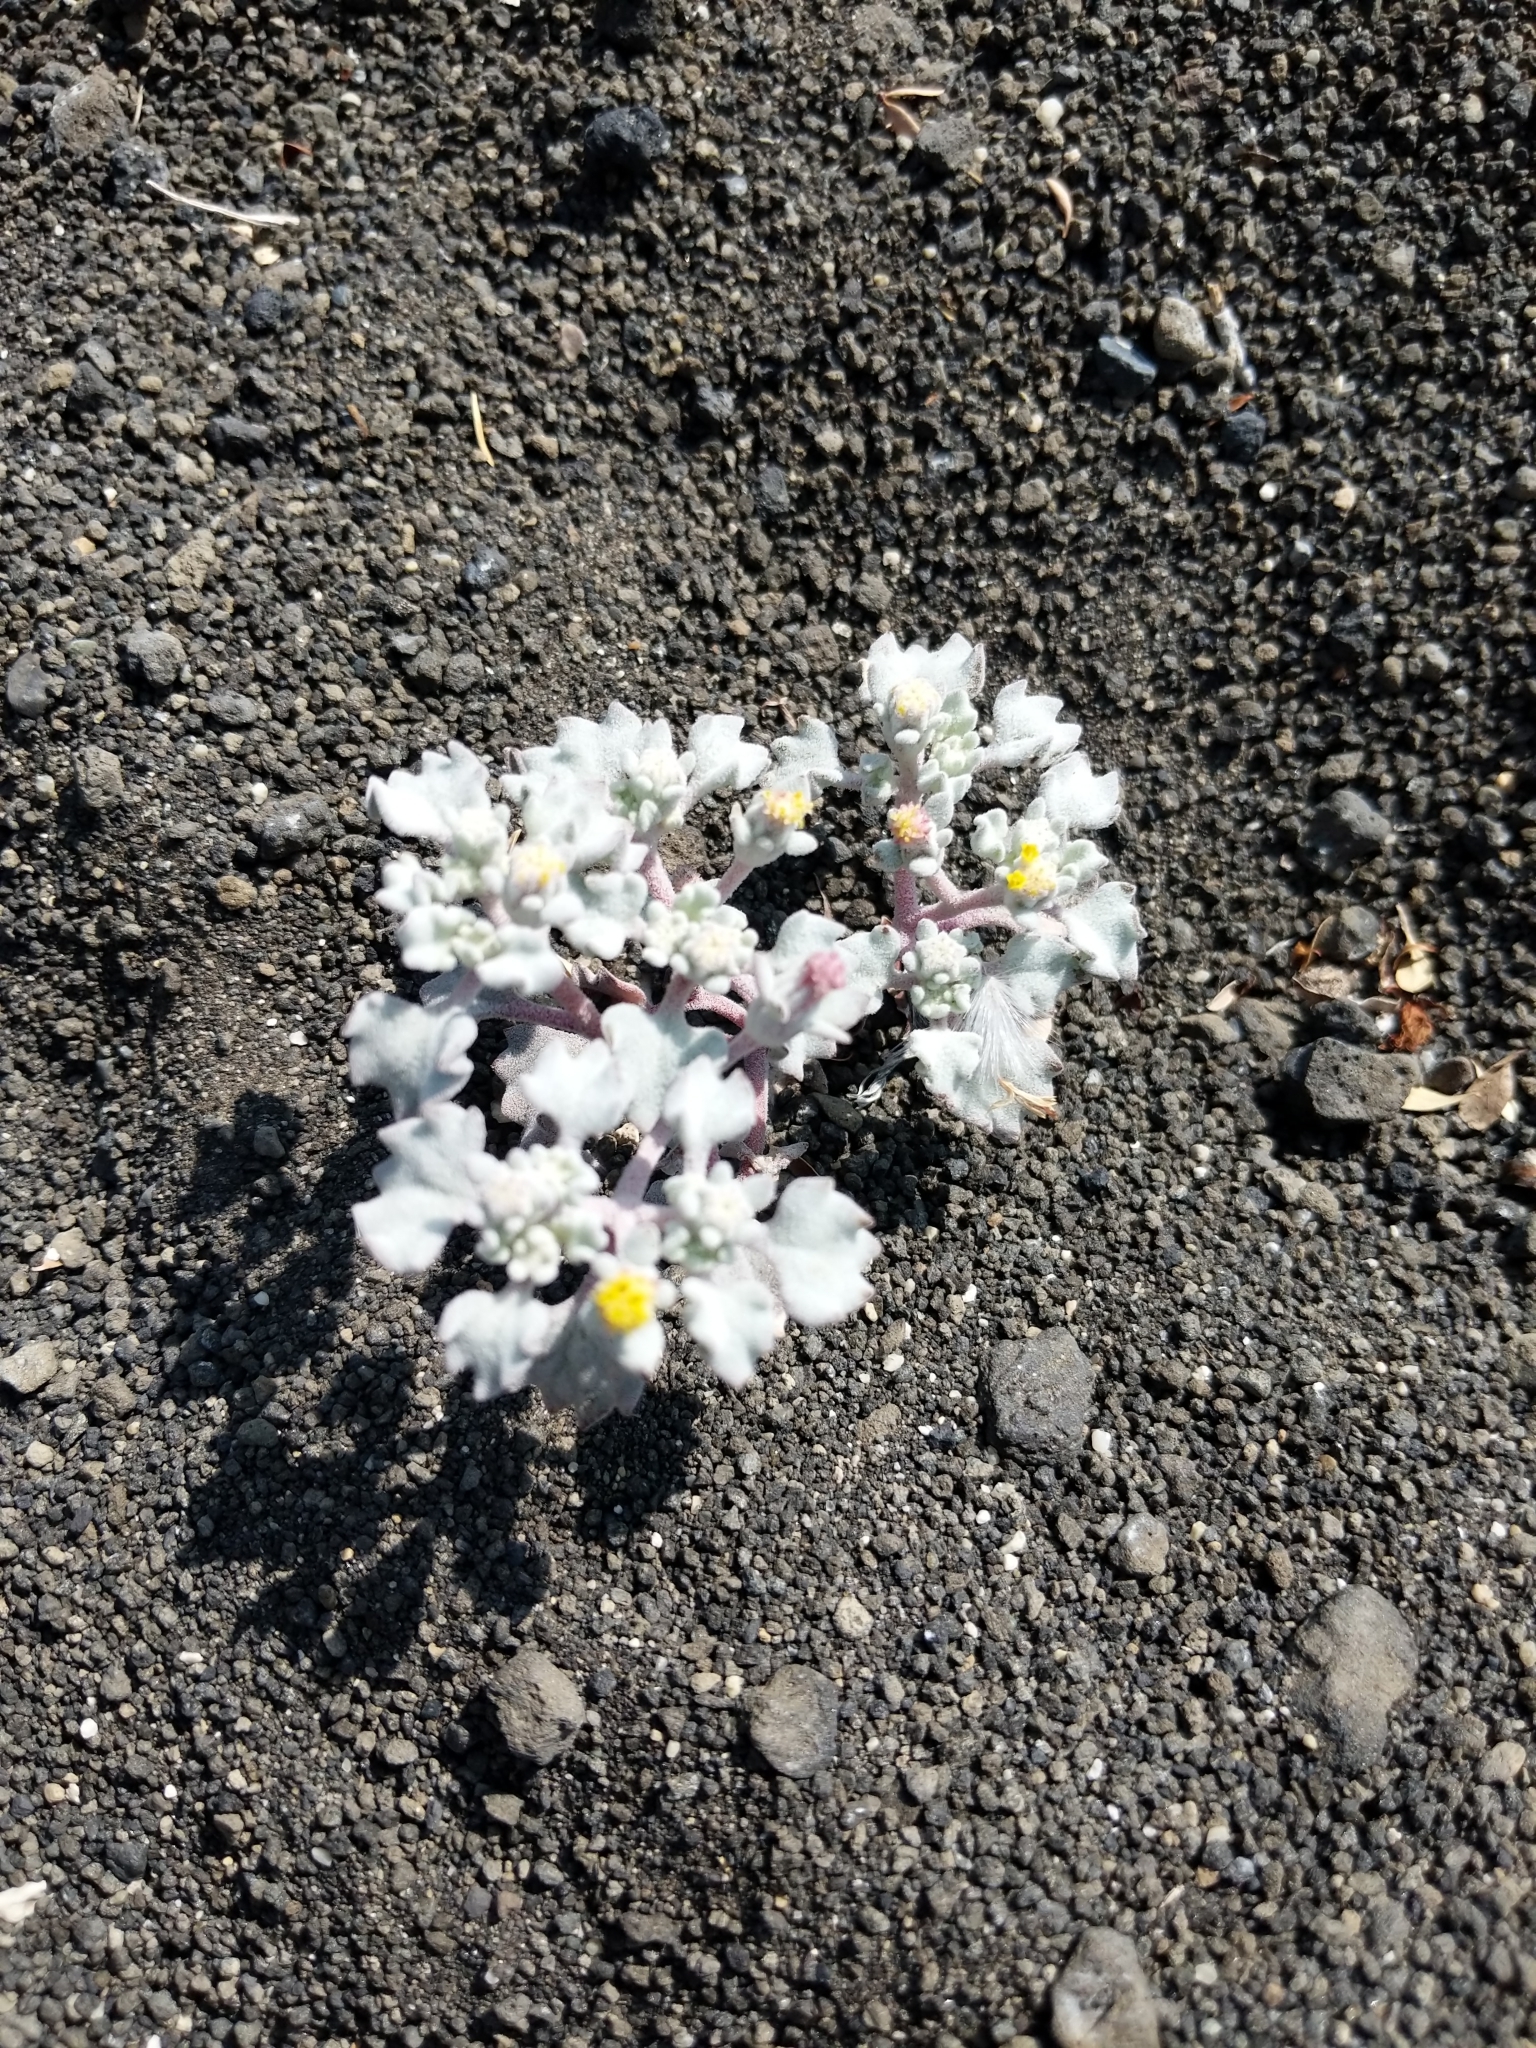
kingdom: Plantae
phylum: Tracheophyta
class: Magnoliopsida
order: Asterales
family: Asteraceae
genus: Psathyrotes
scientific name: Psathyrotes annua
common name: Mealy rosettes
